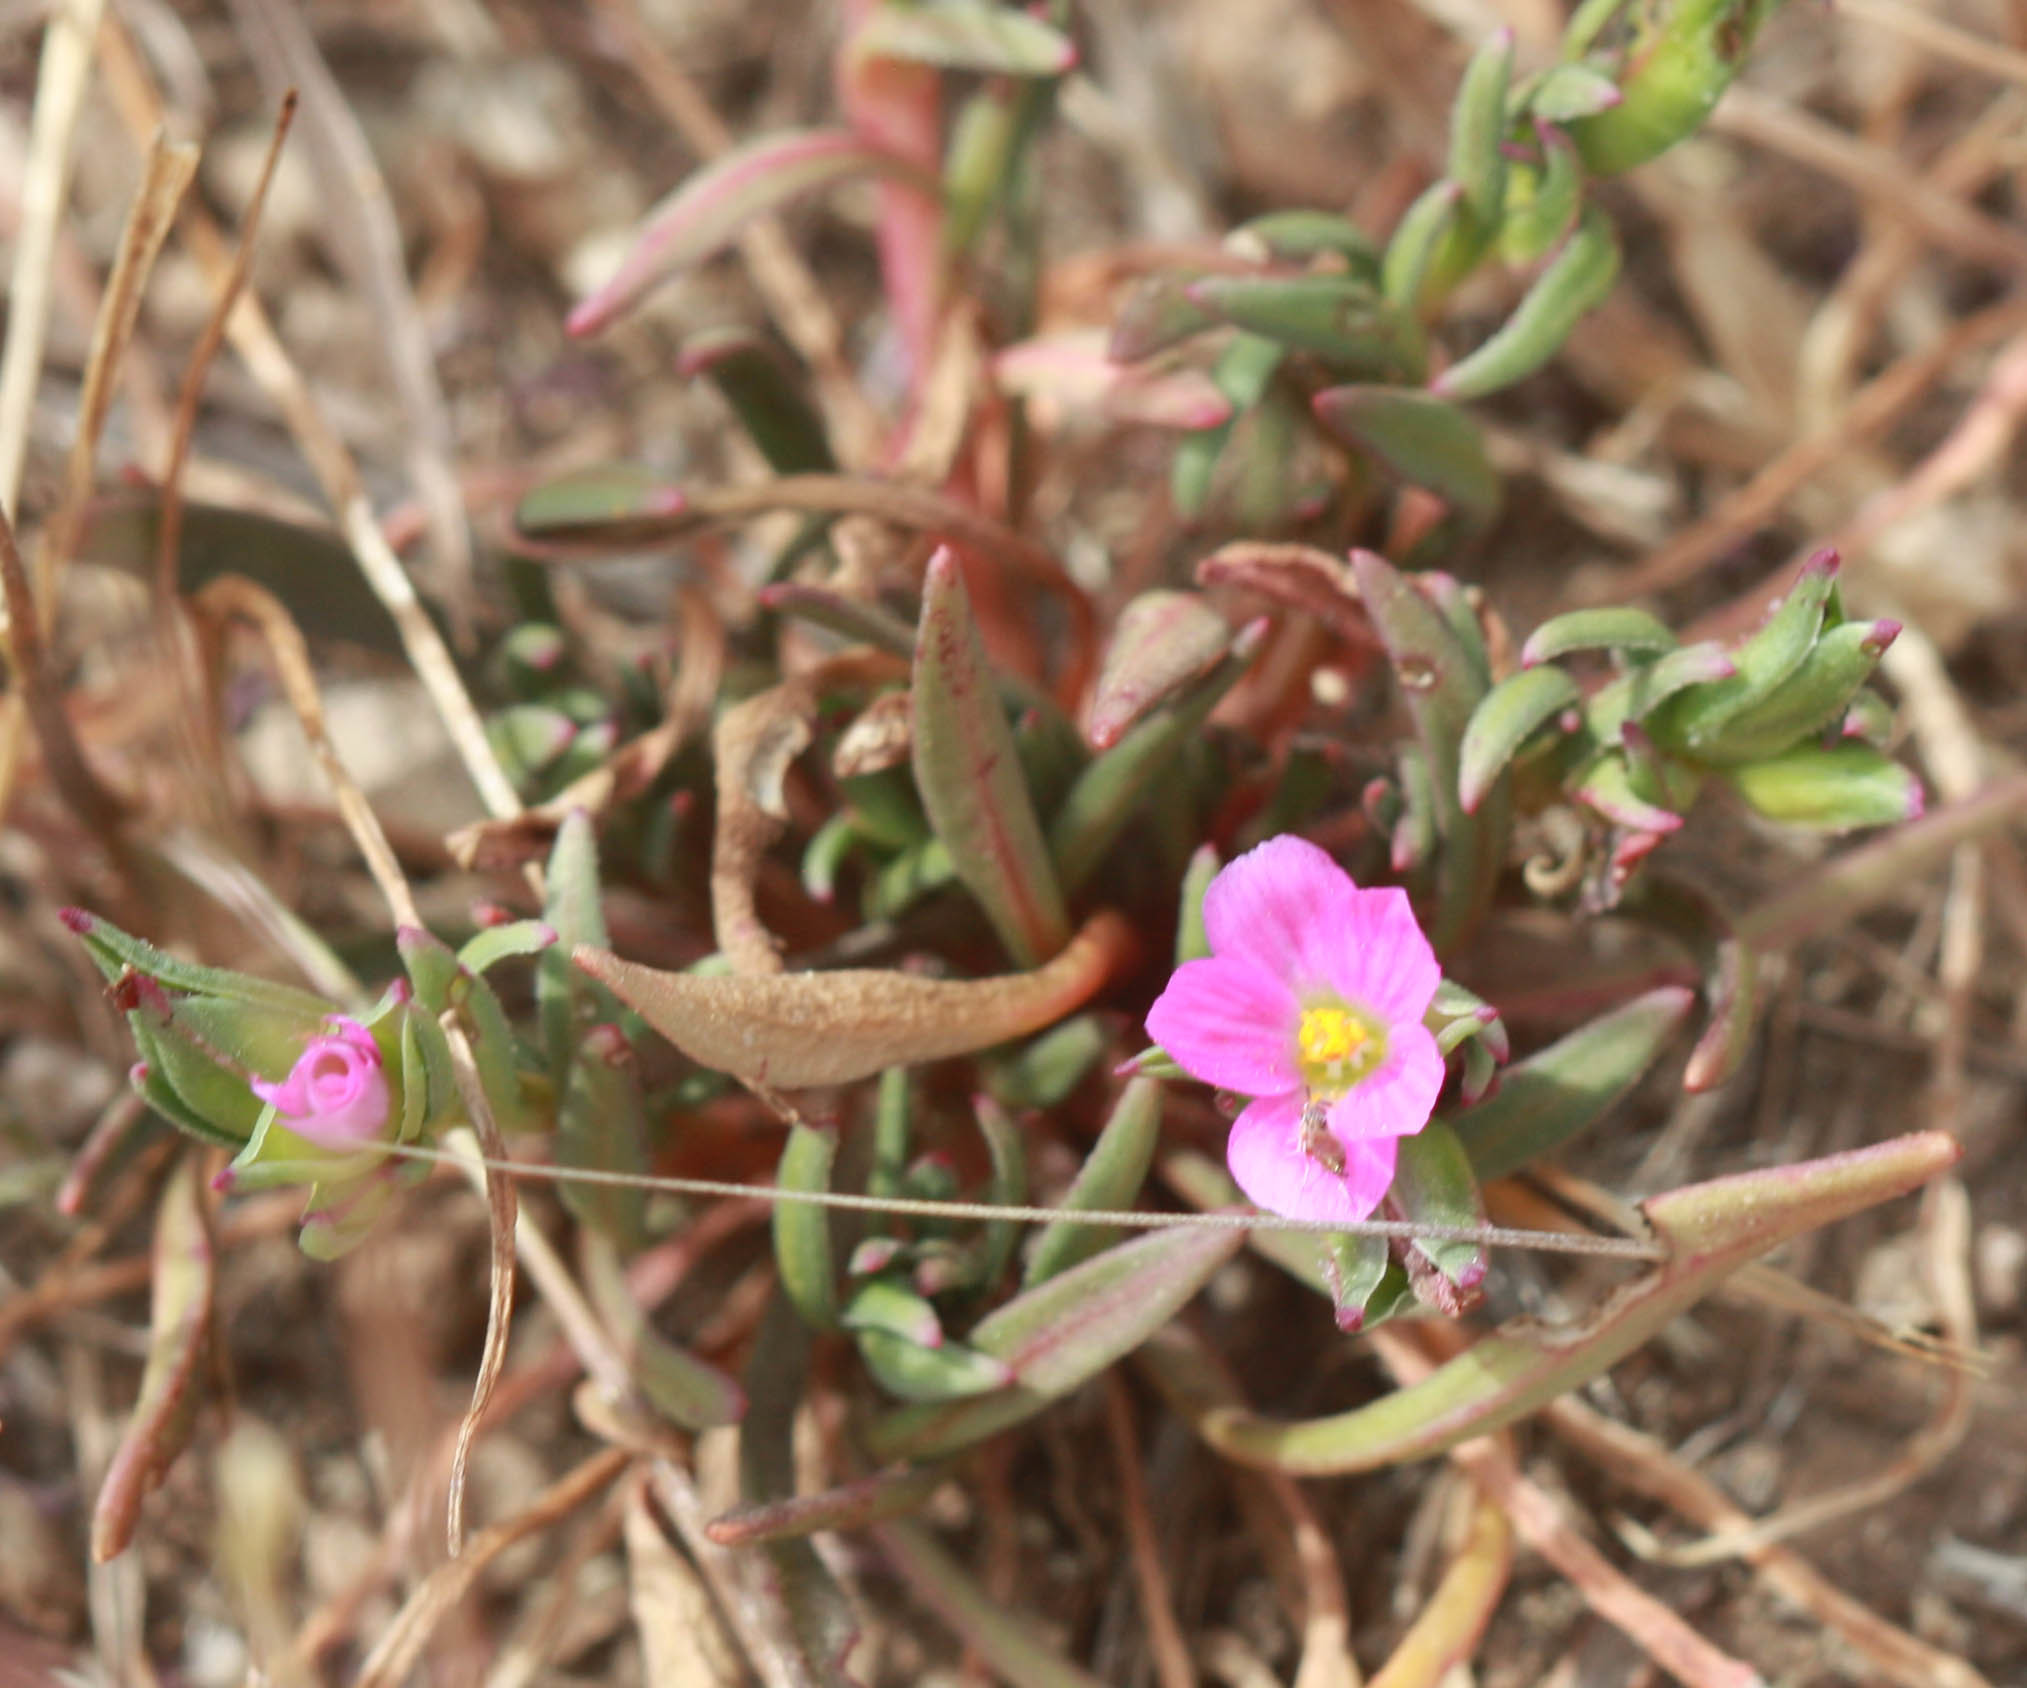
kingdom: Plantae
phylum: Tracheophyta
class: Magnoliopsida
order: Caryophyllales
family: Montiaceae
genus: Calandrinia
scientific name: Calandrinia menziesii
